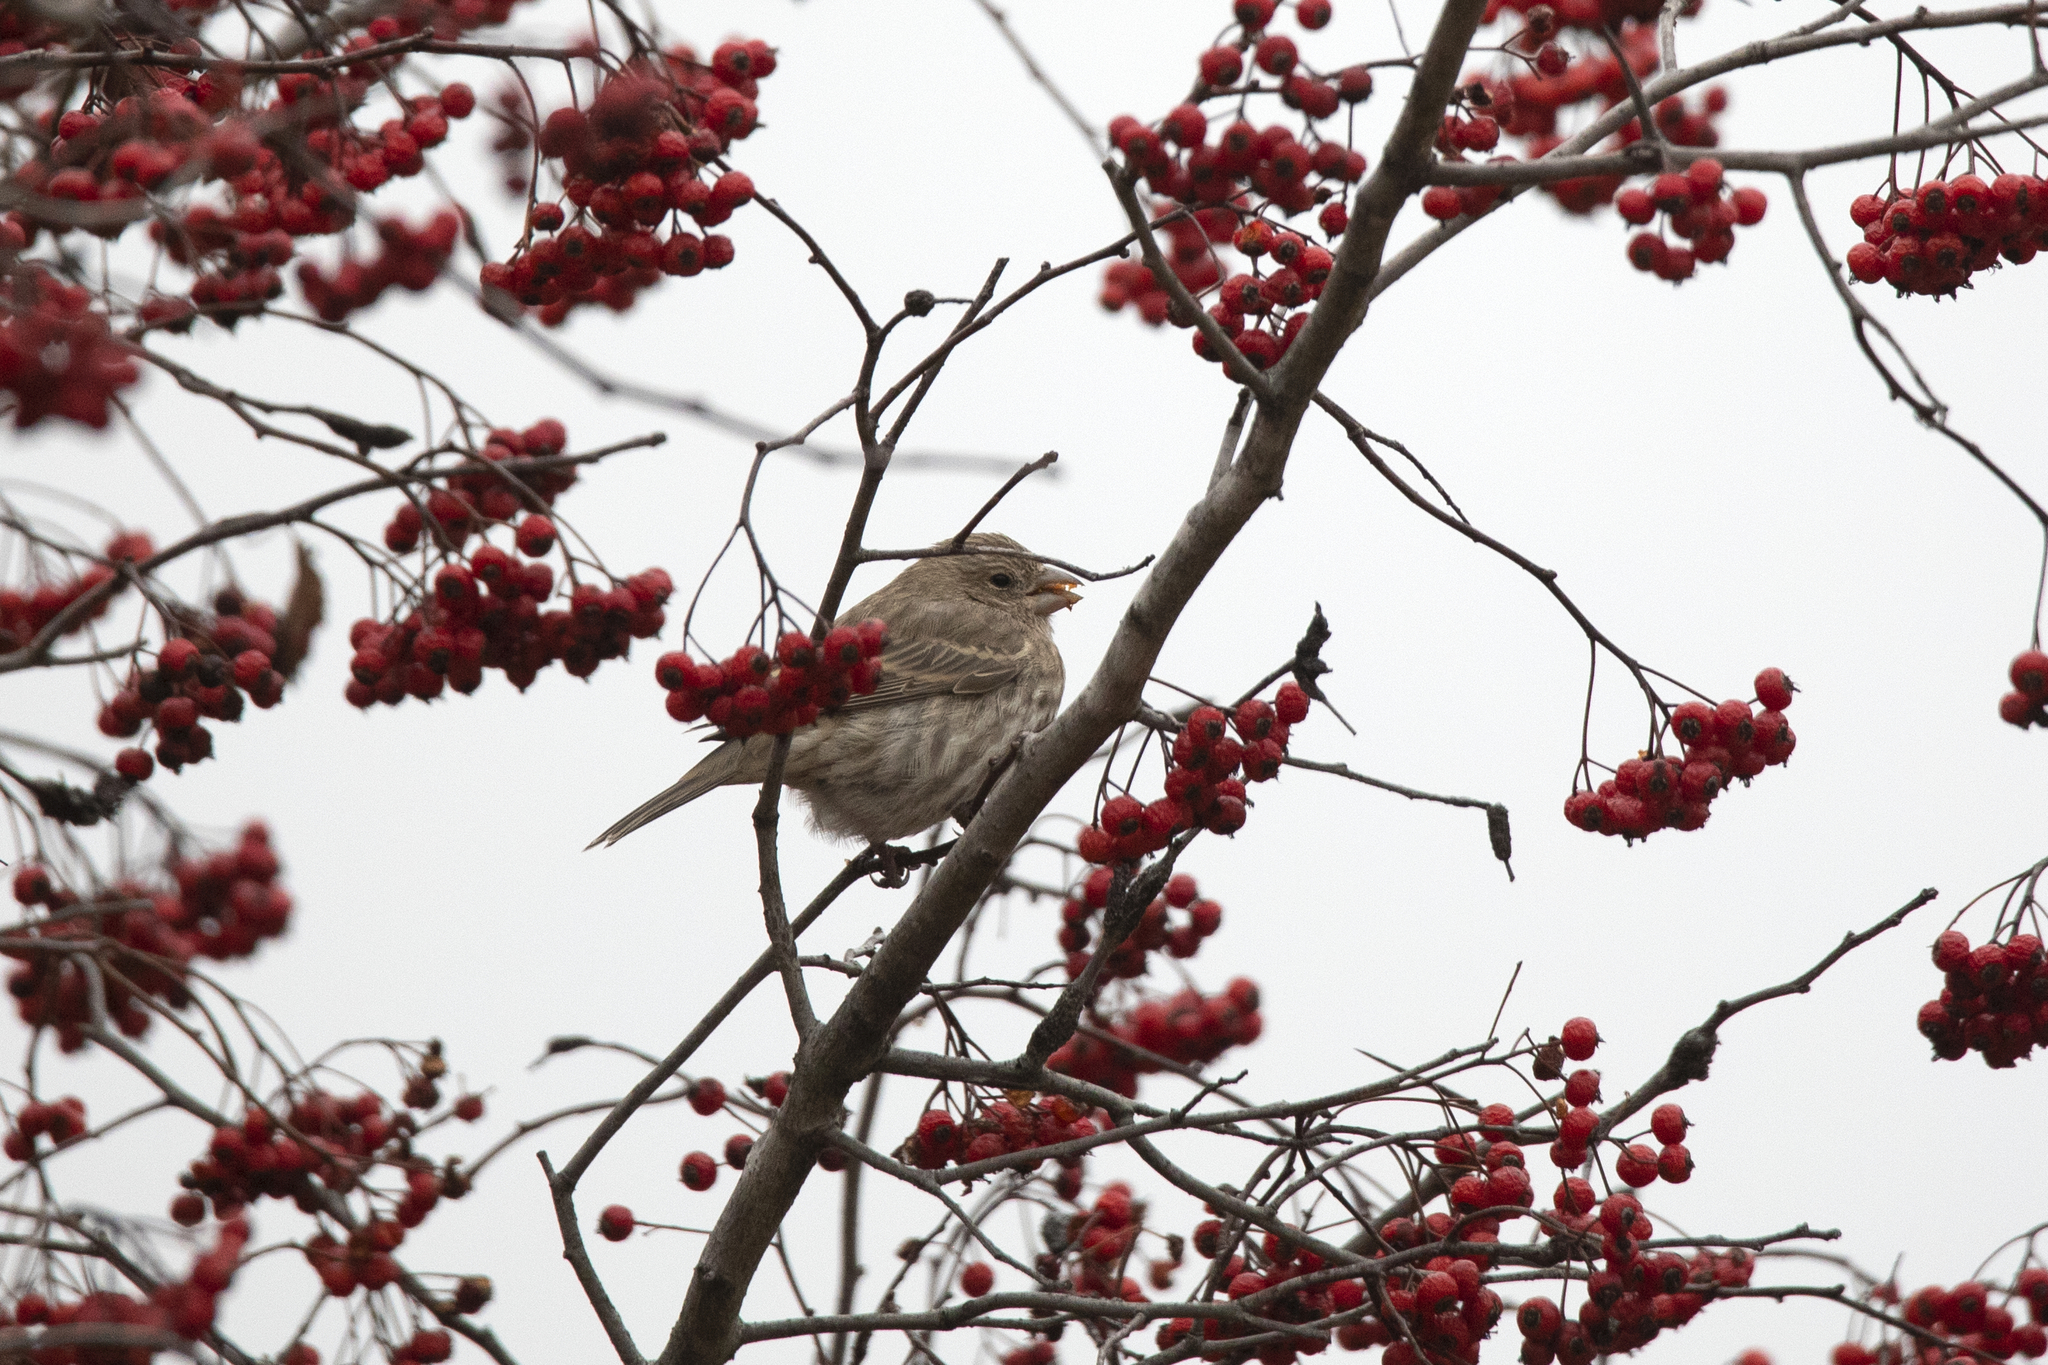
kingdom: Animalia
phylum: Chordata
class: Aves
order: Passeriformes
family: Fringillidae
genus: Haemorhous
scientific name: Haemorhous mexicanus
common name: House finch
